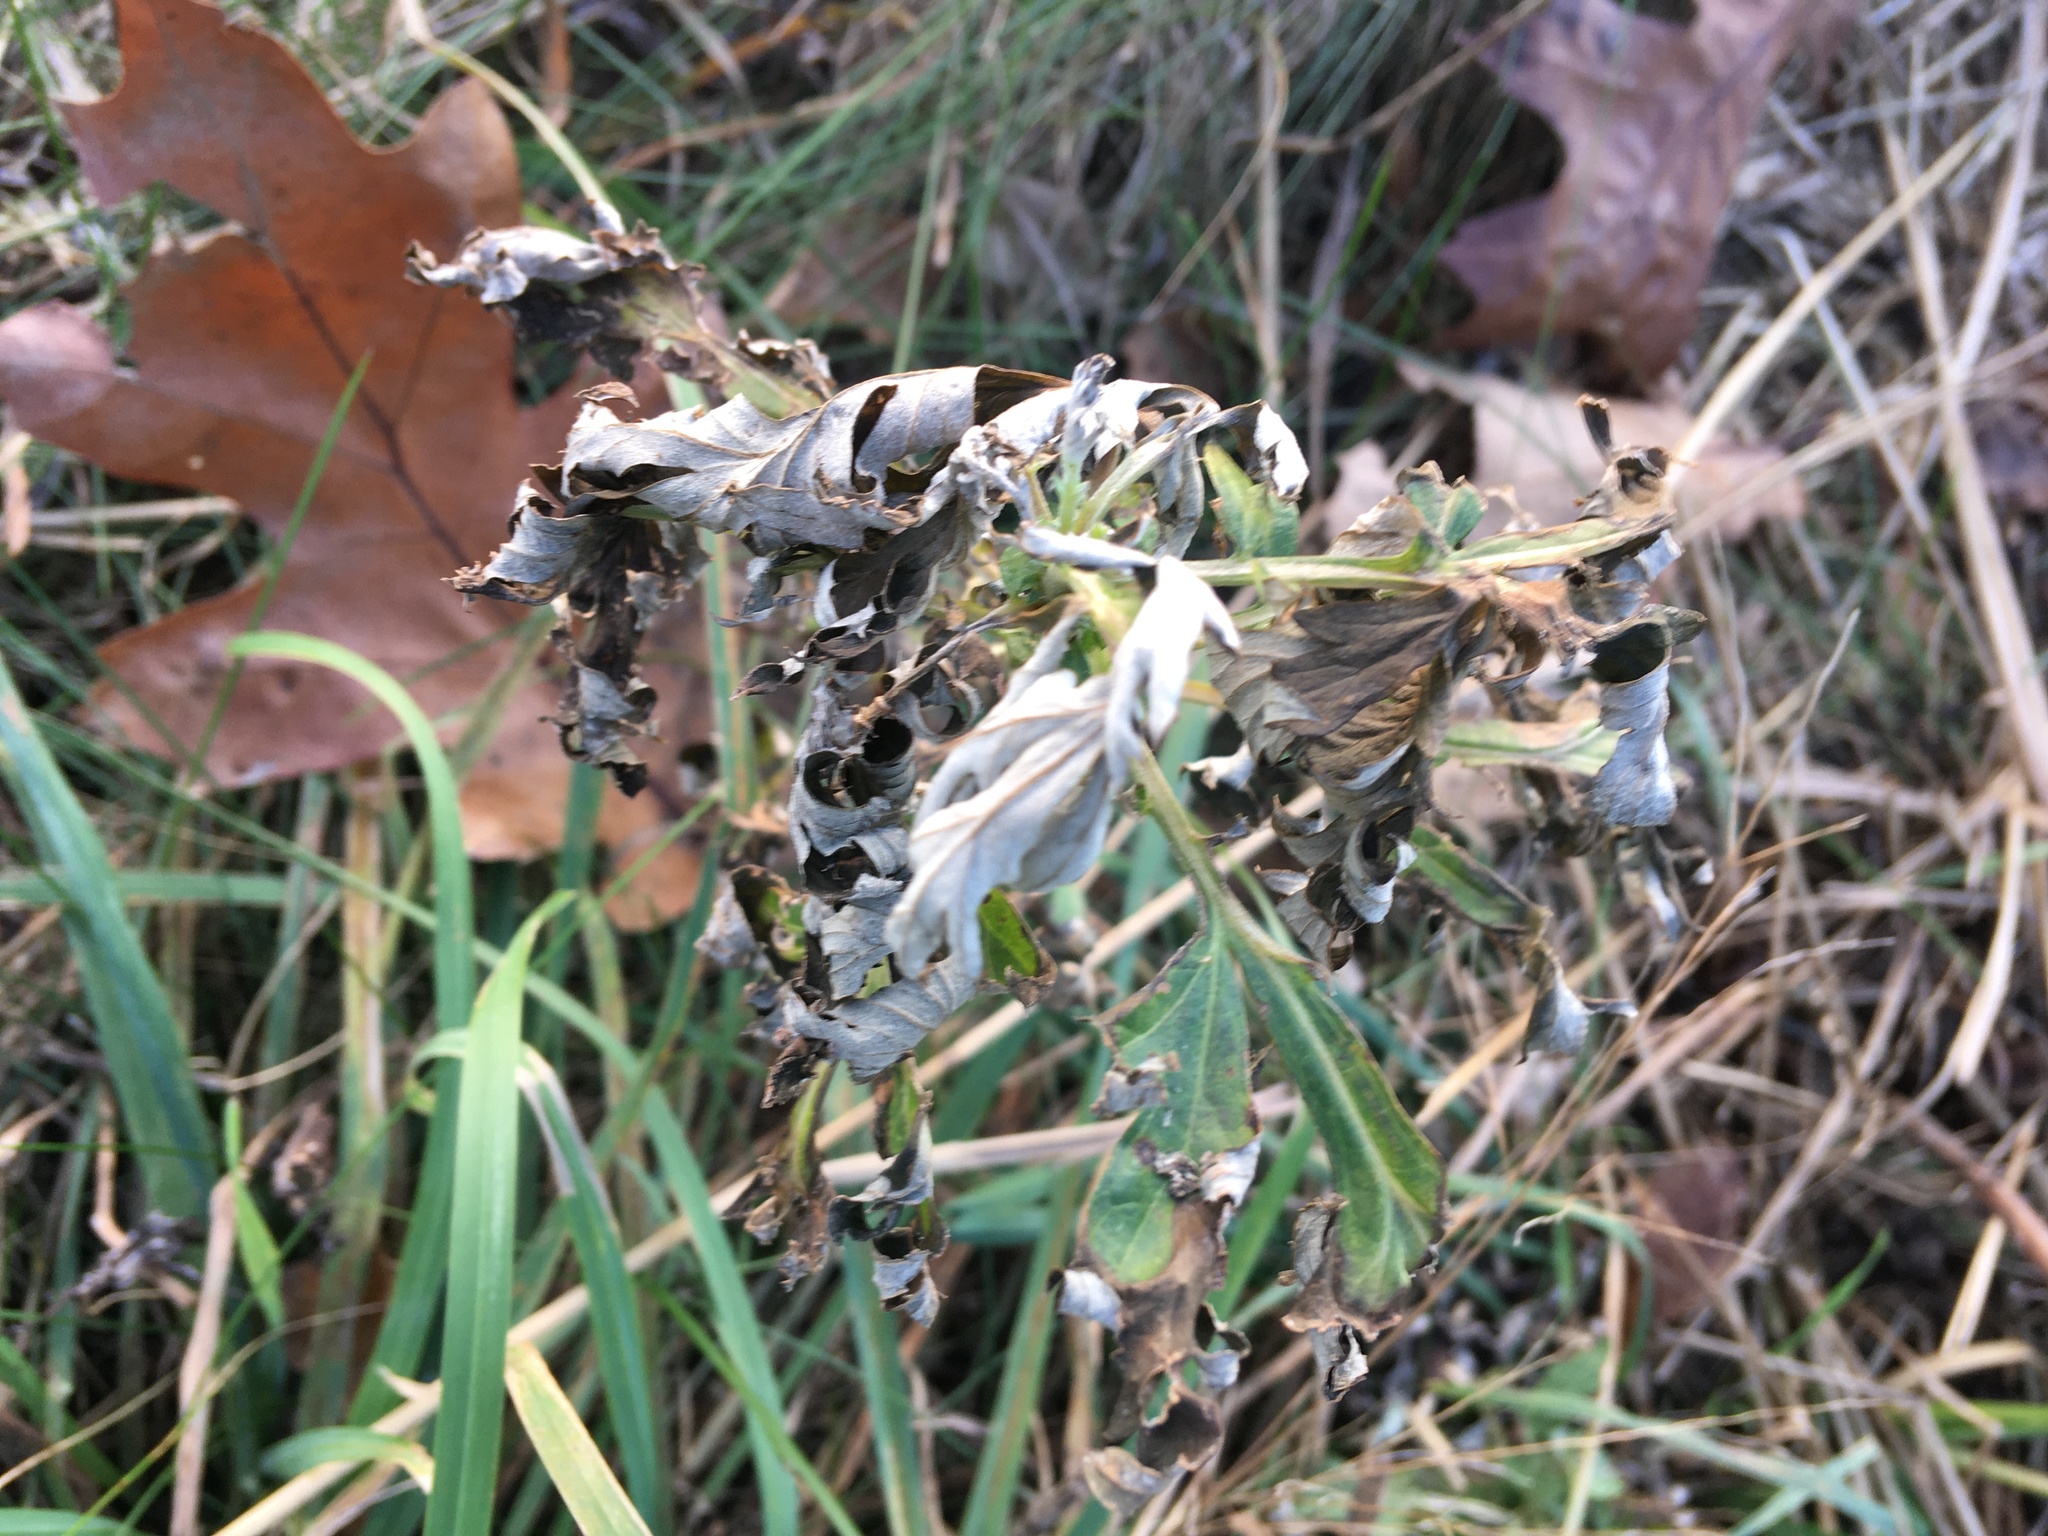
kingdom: Plantae
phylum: Tracheophyta
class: Magnoliopsida
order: Asterales
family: Asteraceae
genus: Artemisia
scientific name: Artemisia vulgaris
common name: Mugwort
